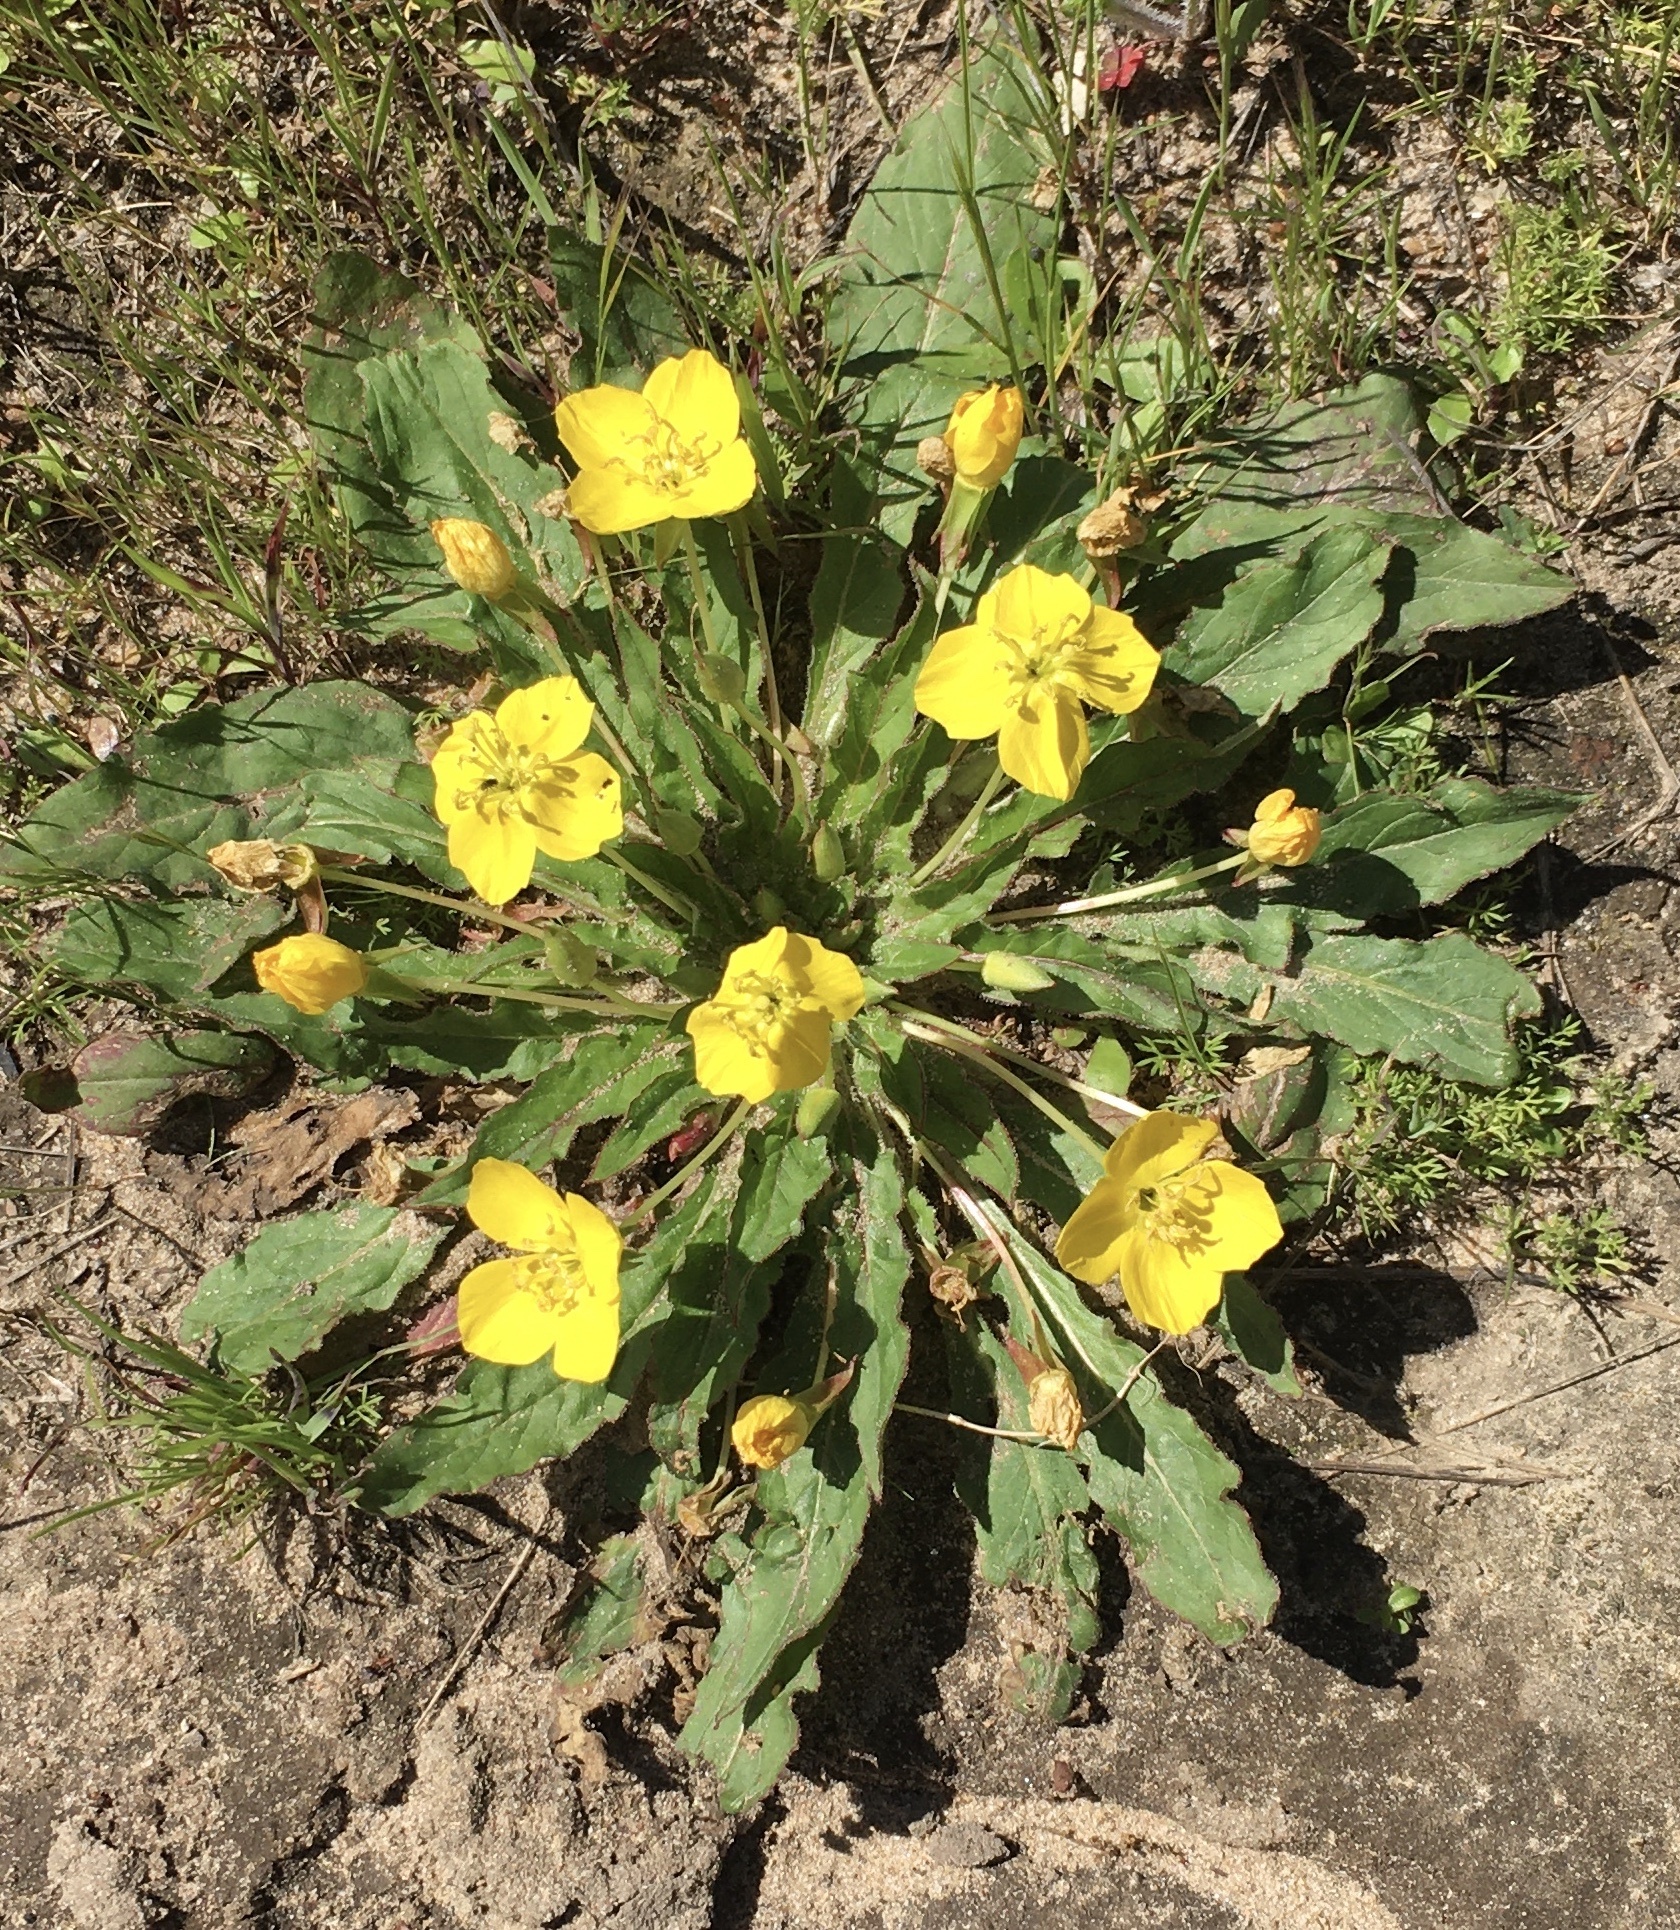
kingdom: Plantae
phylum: Tracheophyta
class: Magnoliopsida
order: Myrtales
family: Onagraceae
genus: Taraxia
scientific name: Taraxia ovata
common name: Goldeneggs
